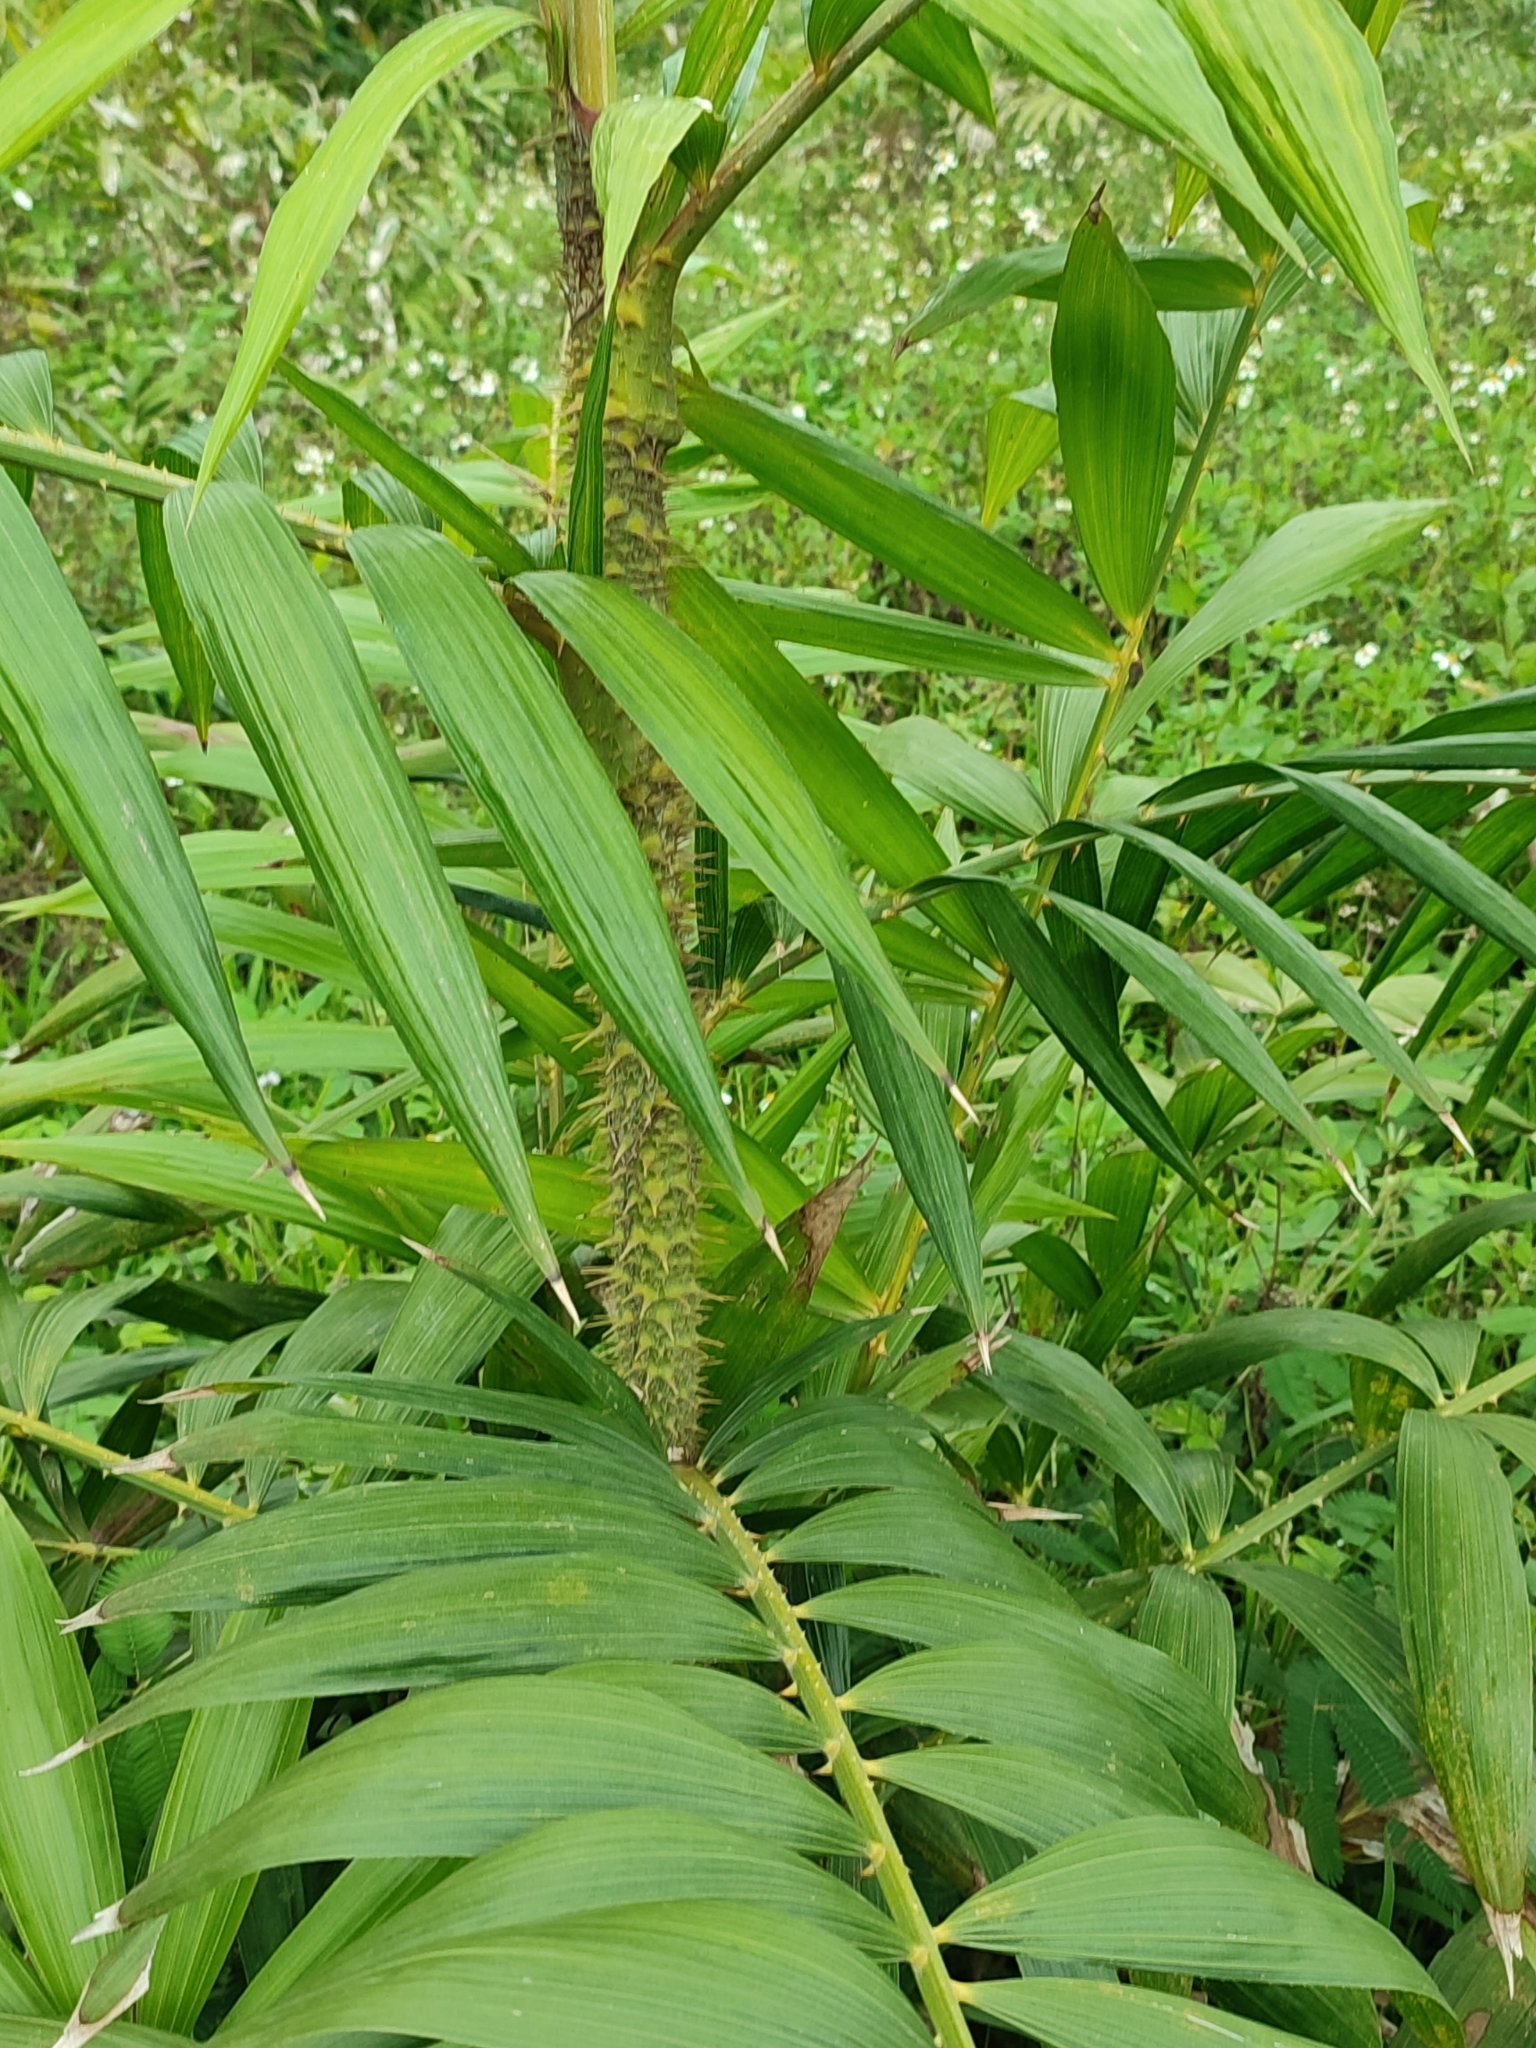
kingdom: Plantae
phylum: Tracheophyta
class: Liliopsida
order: Arecales
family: Arecaceae
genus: Calamus
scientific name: Calamus formosanus
